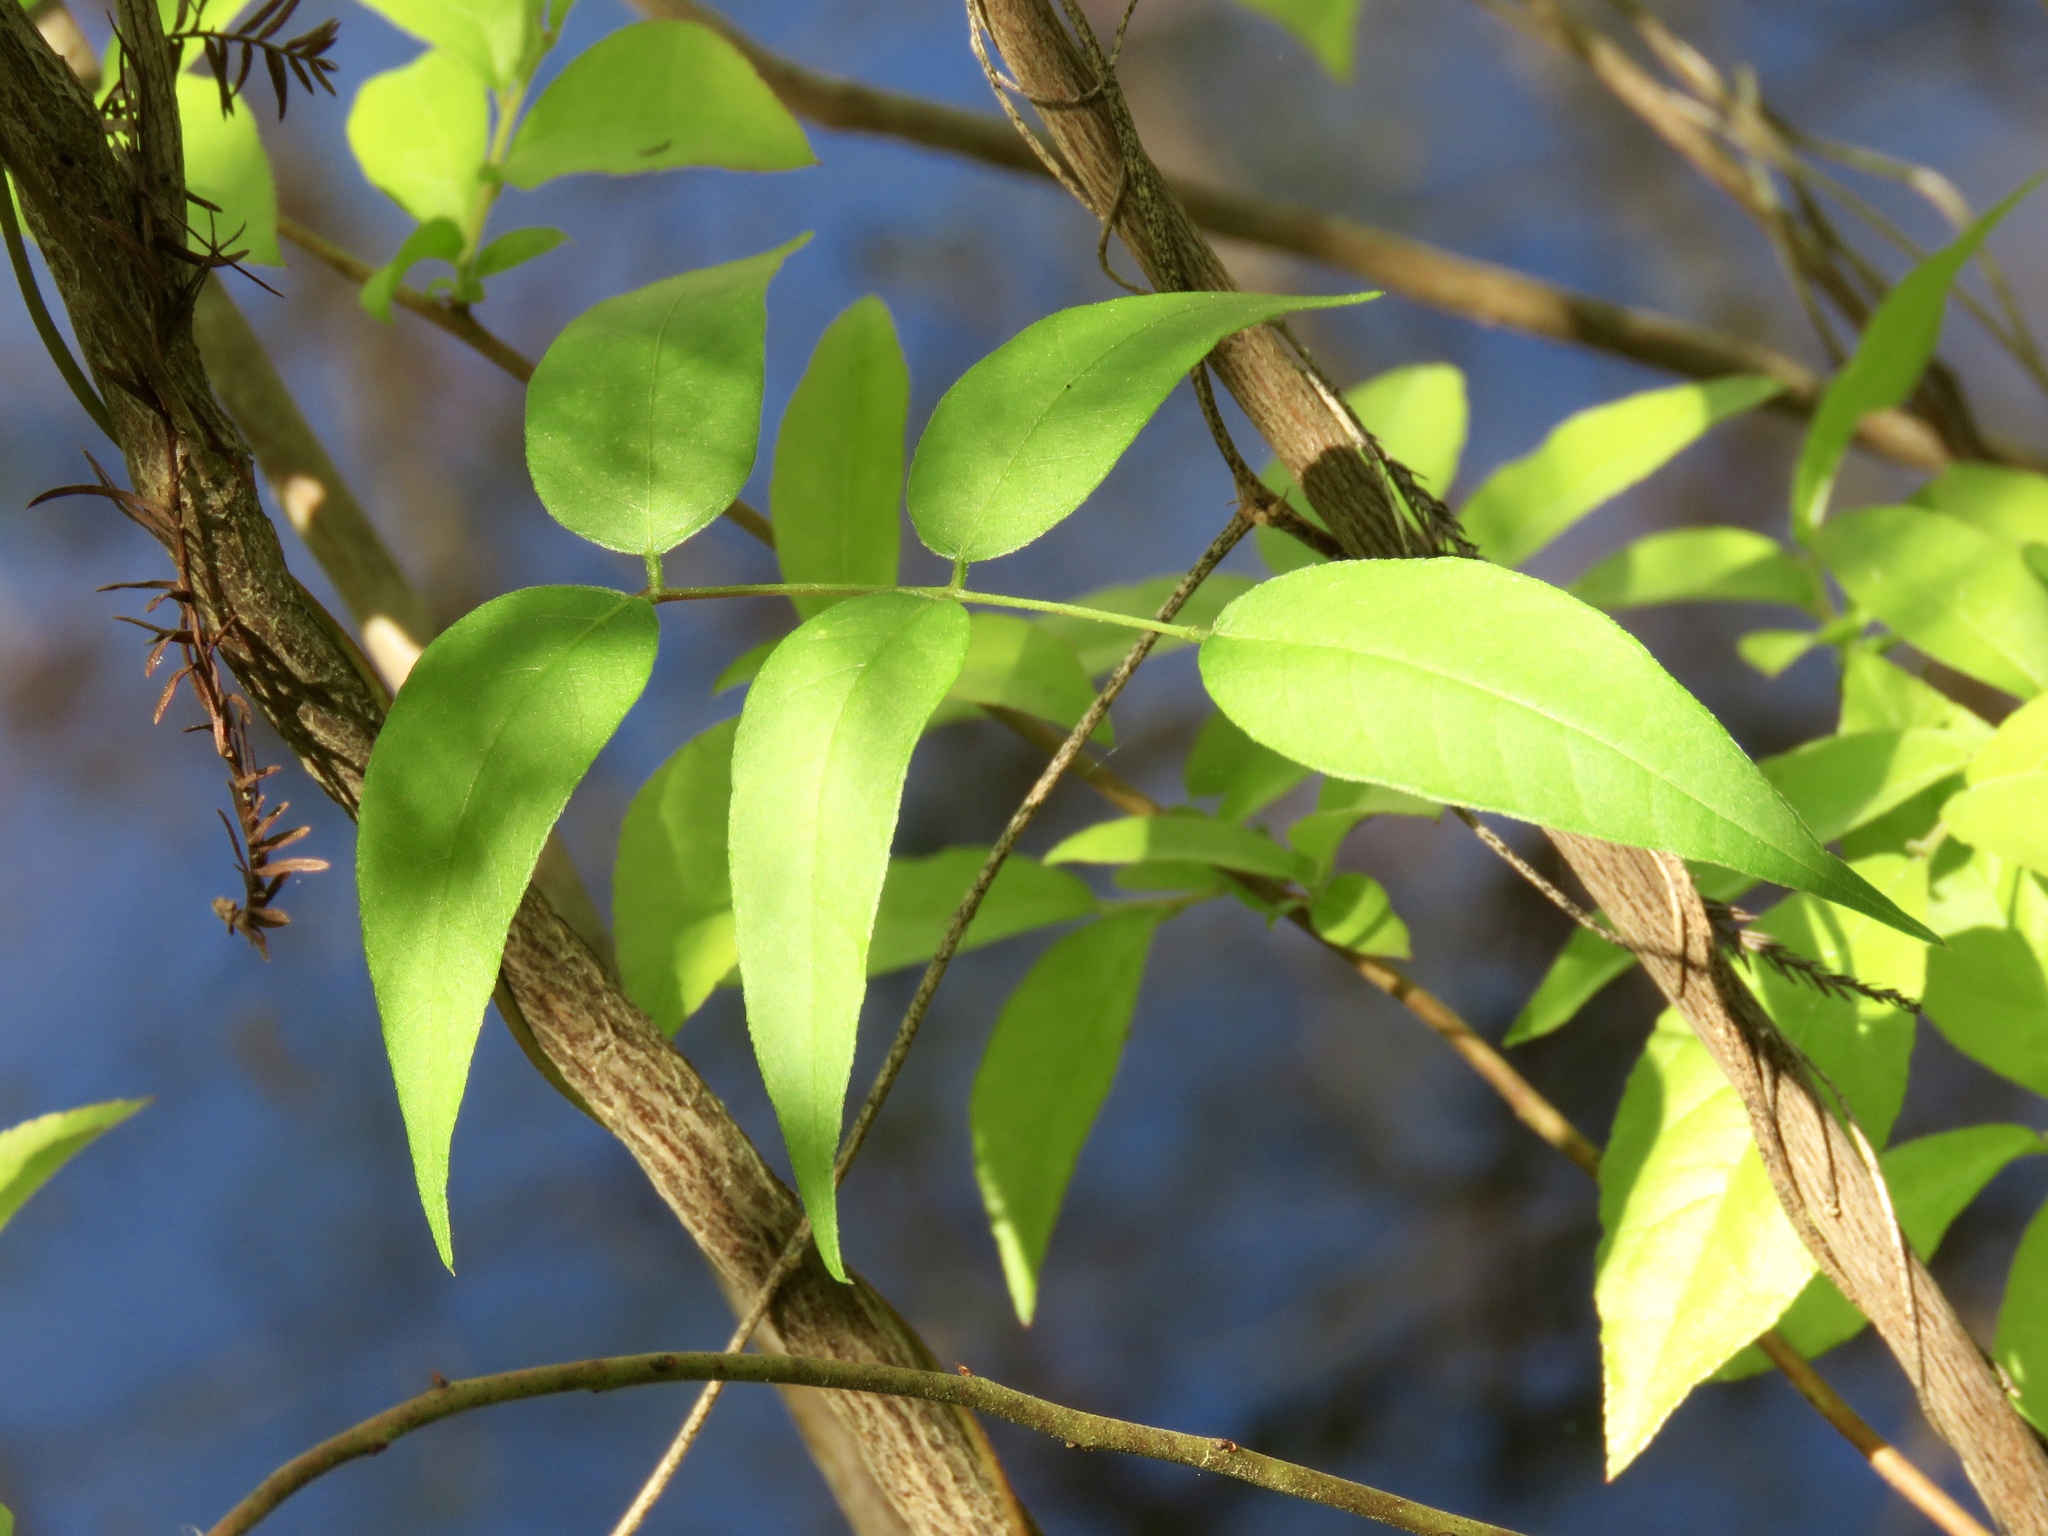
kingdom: Plantae
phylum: Tracheophyta
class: Magnoliopsida
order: Ericales
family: Ericaceae
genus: Eubotrys
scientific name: Eubotrys racemosa
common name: Fetterbush
